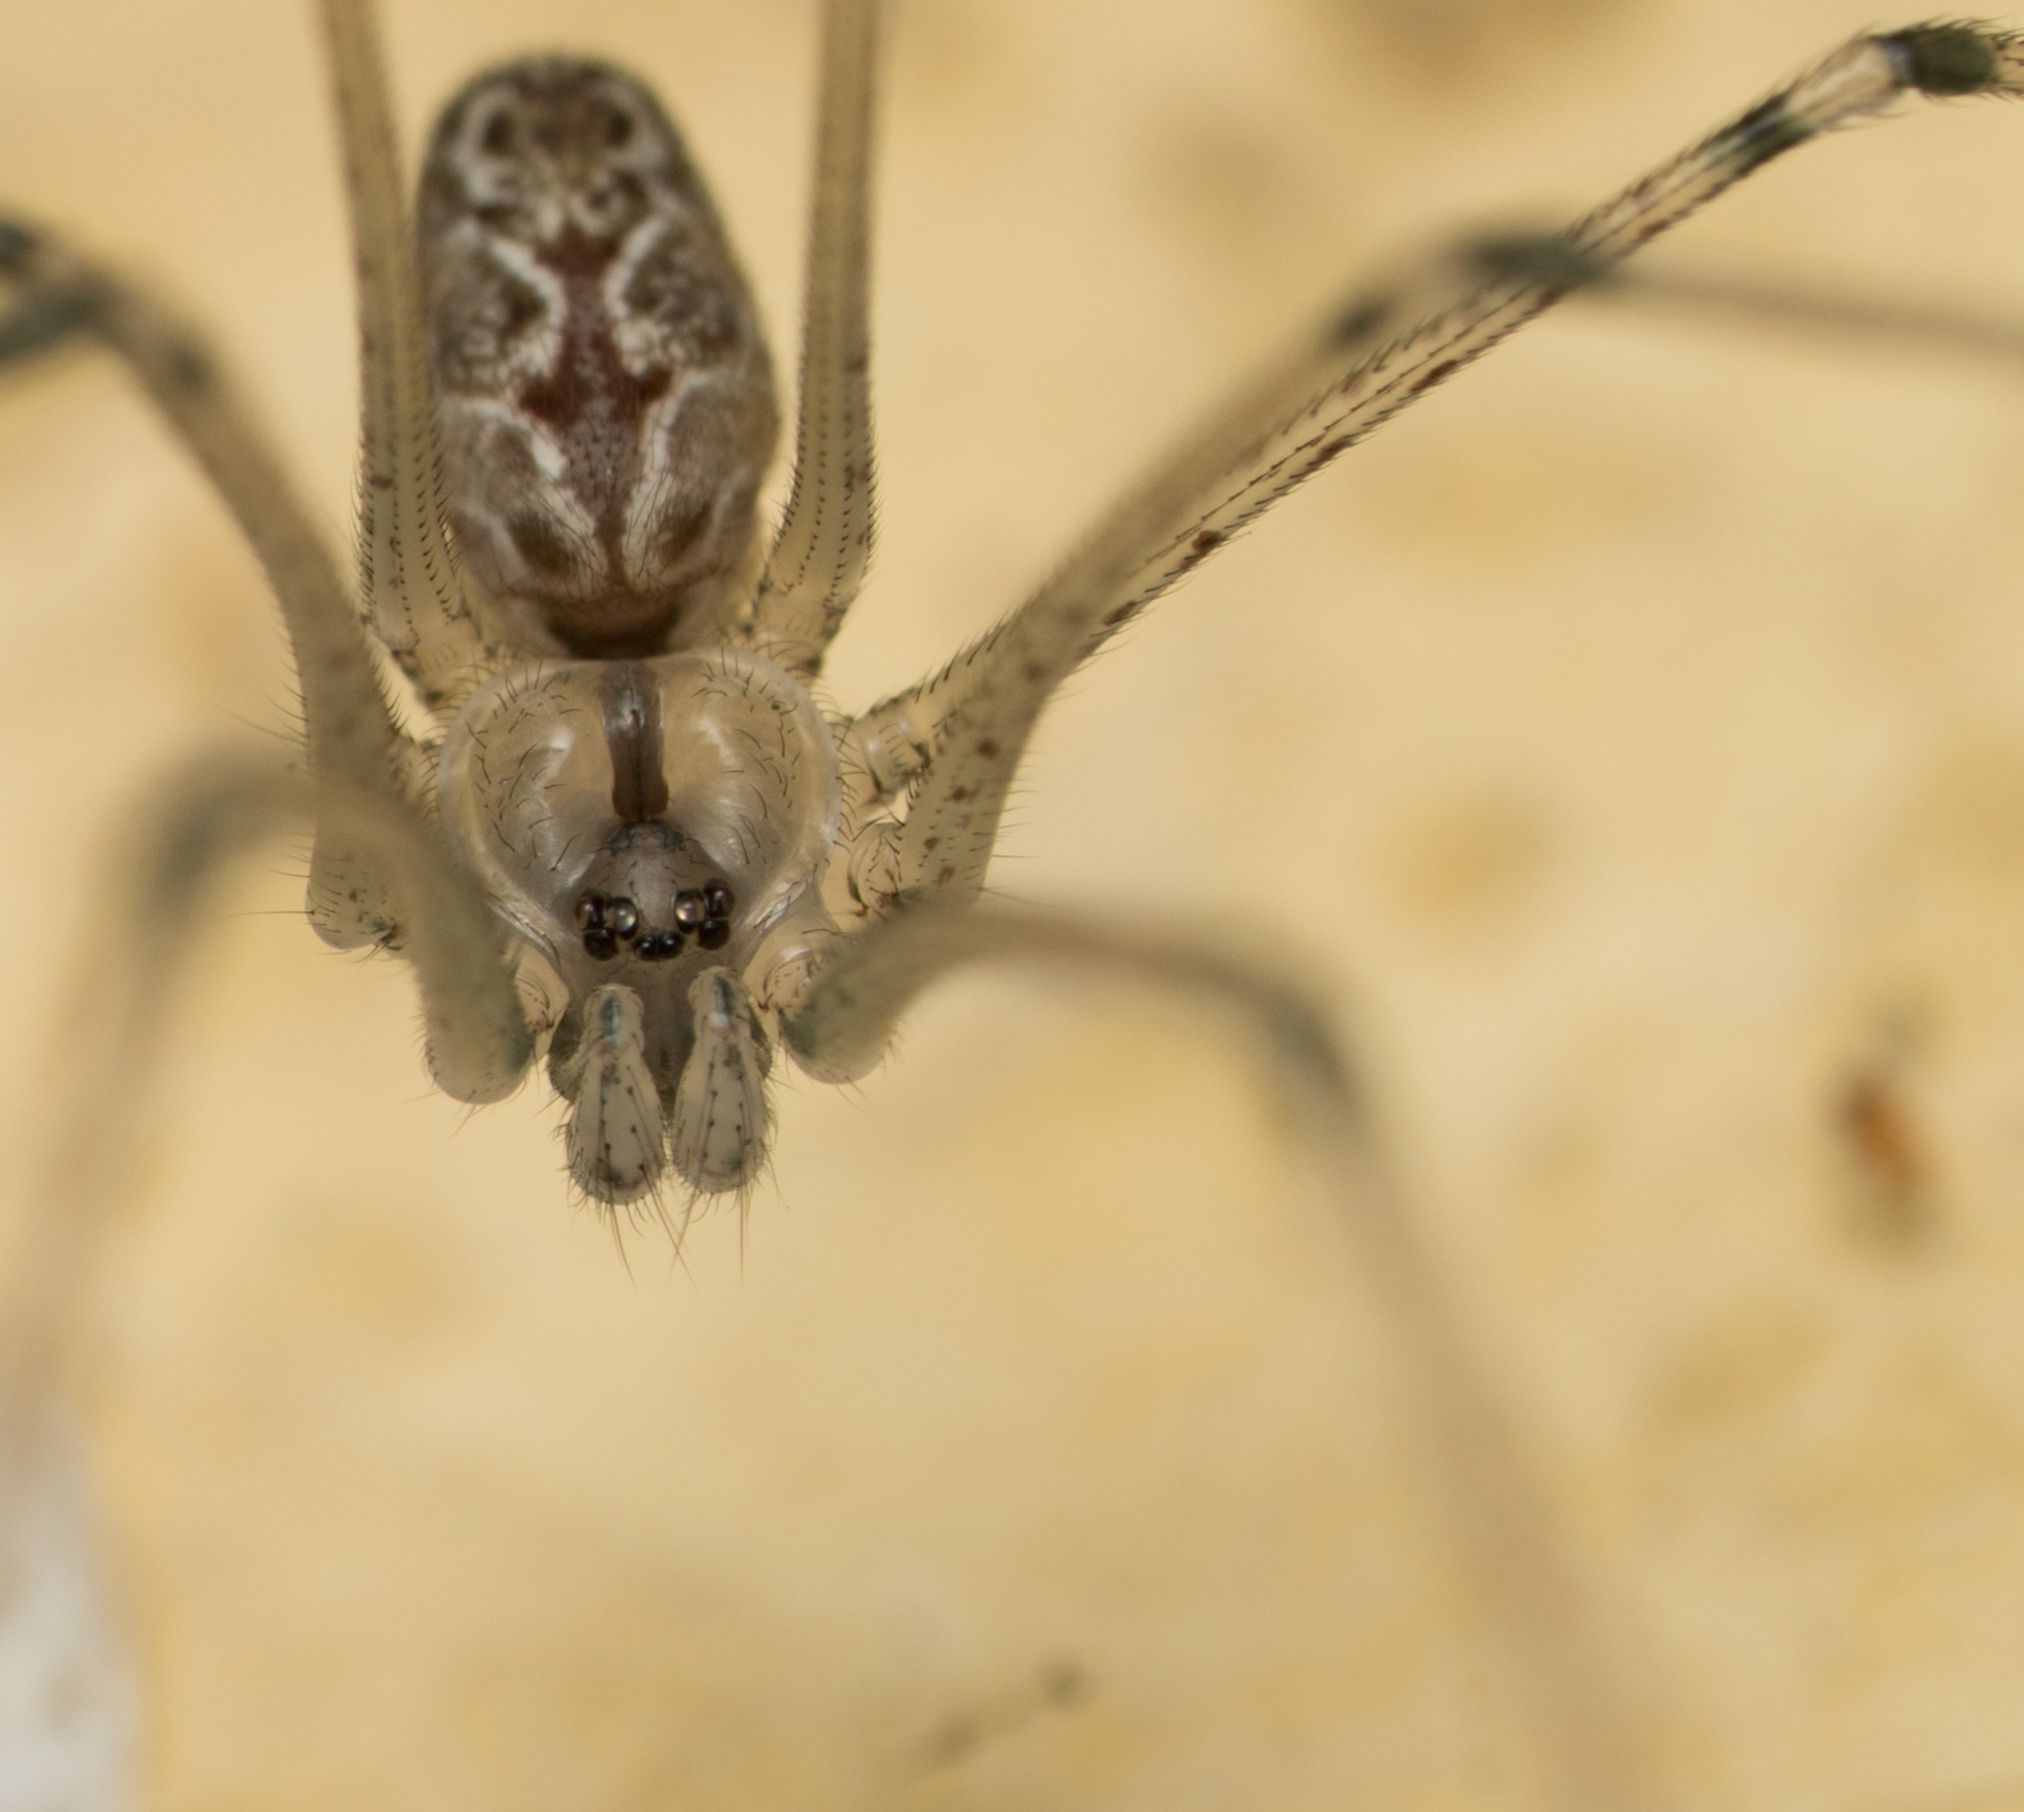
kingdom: Animalia
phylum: Arthropoda
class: Arachnida
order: Araneae
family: Pholcidae
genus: Holocnemus
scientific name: Holocnemus pluchei
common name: Marbled cellar spider
